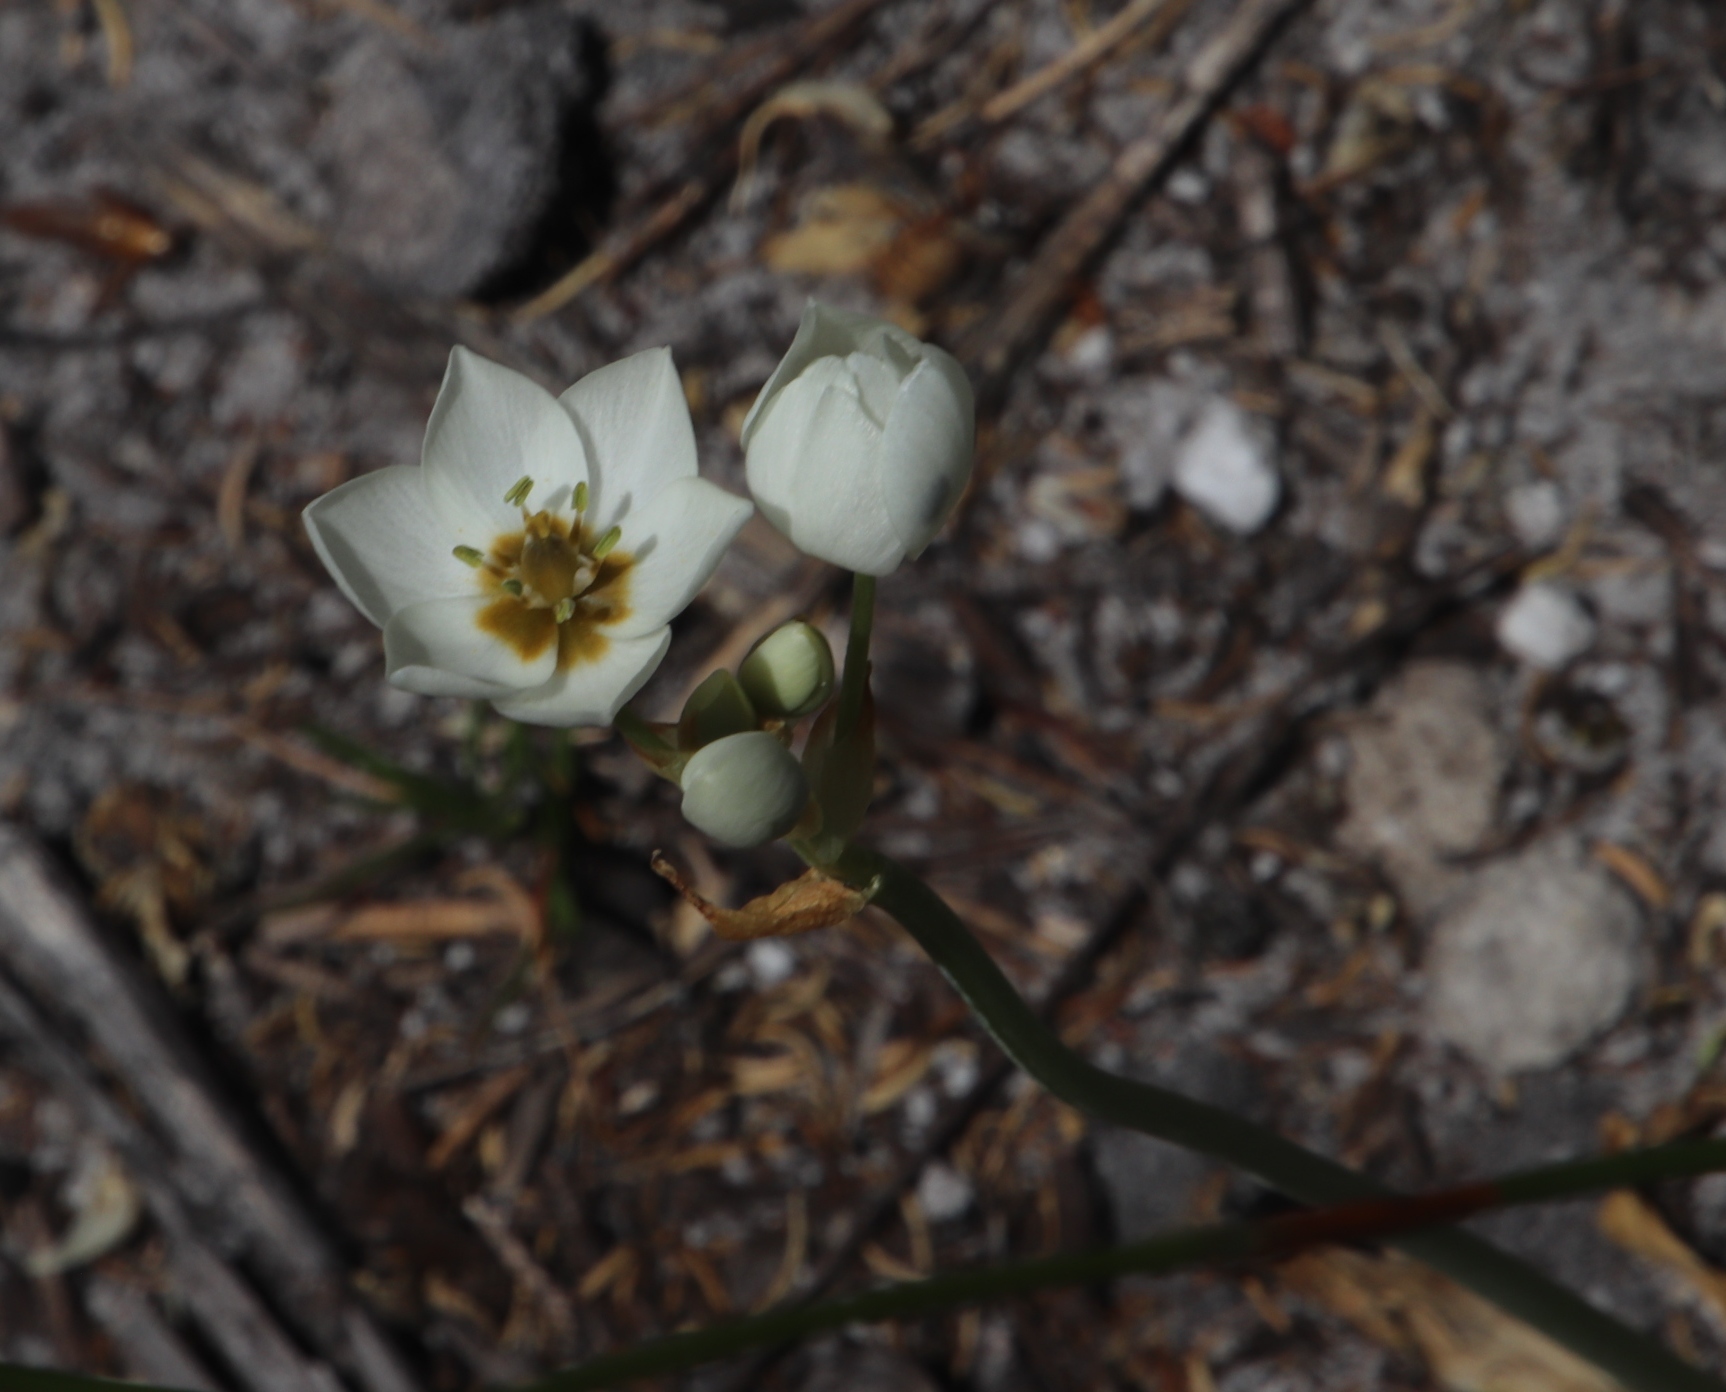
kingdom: Plantae
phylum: Tracheophyta
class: Liliopsida
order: Asparagales
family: Asparagaceae
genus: Ornithogalum
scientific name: Ornithogalum thyrsoides
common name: Chincherinchee
